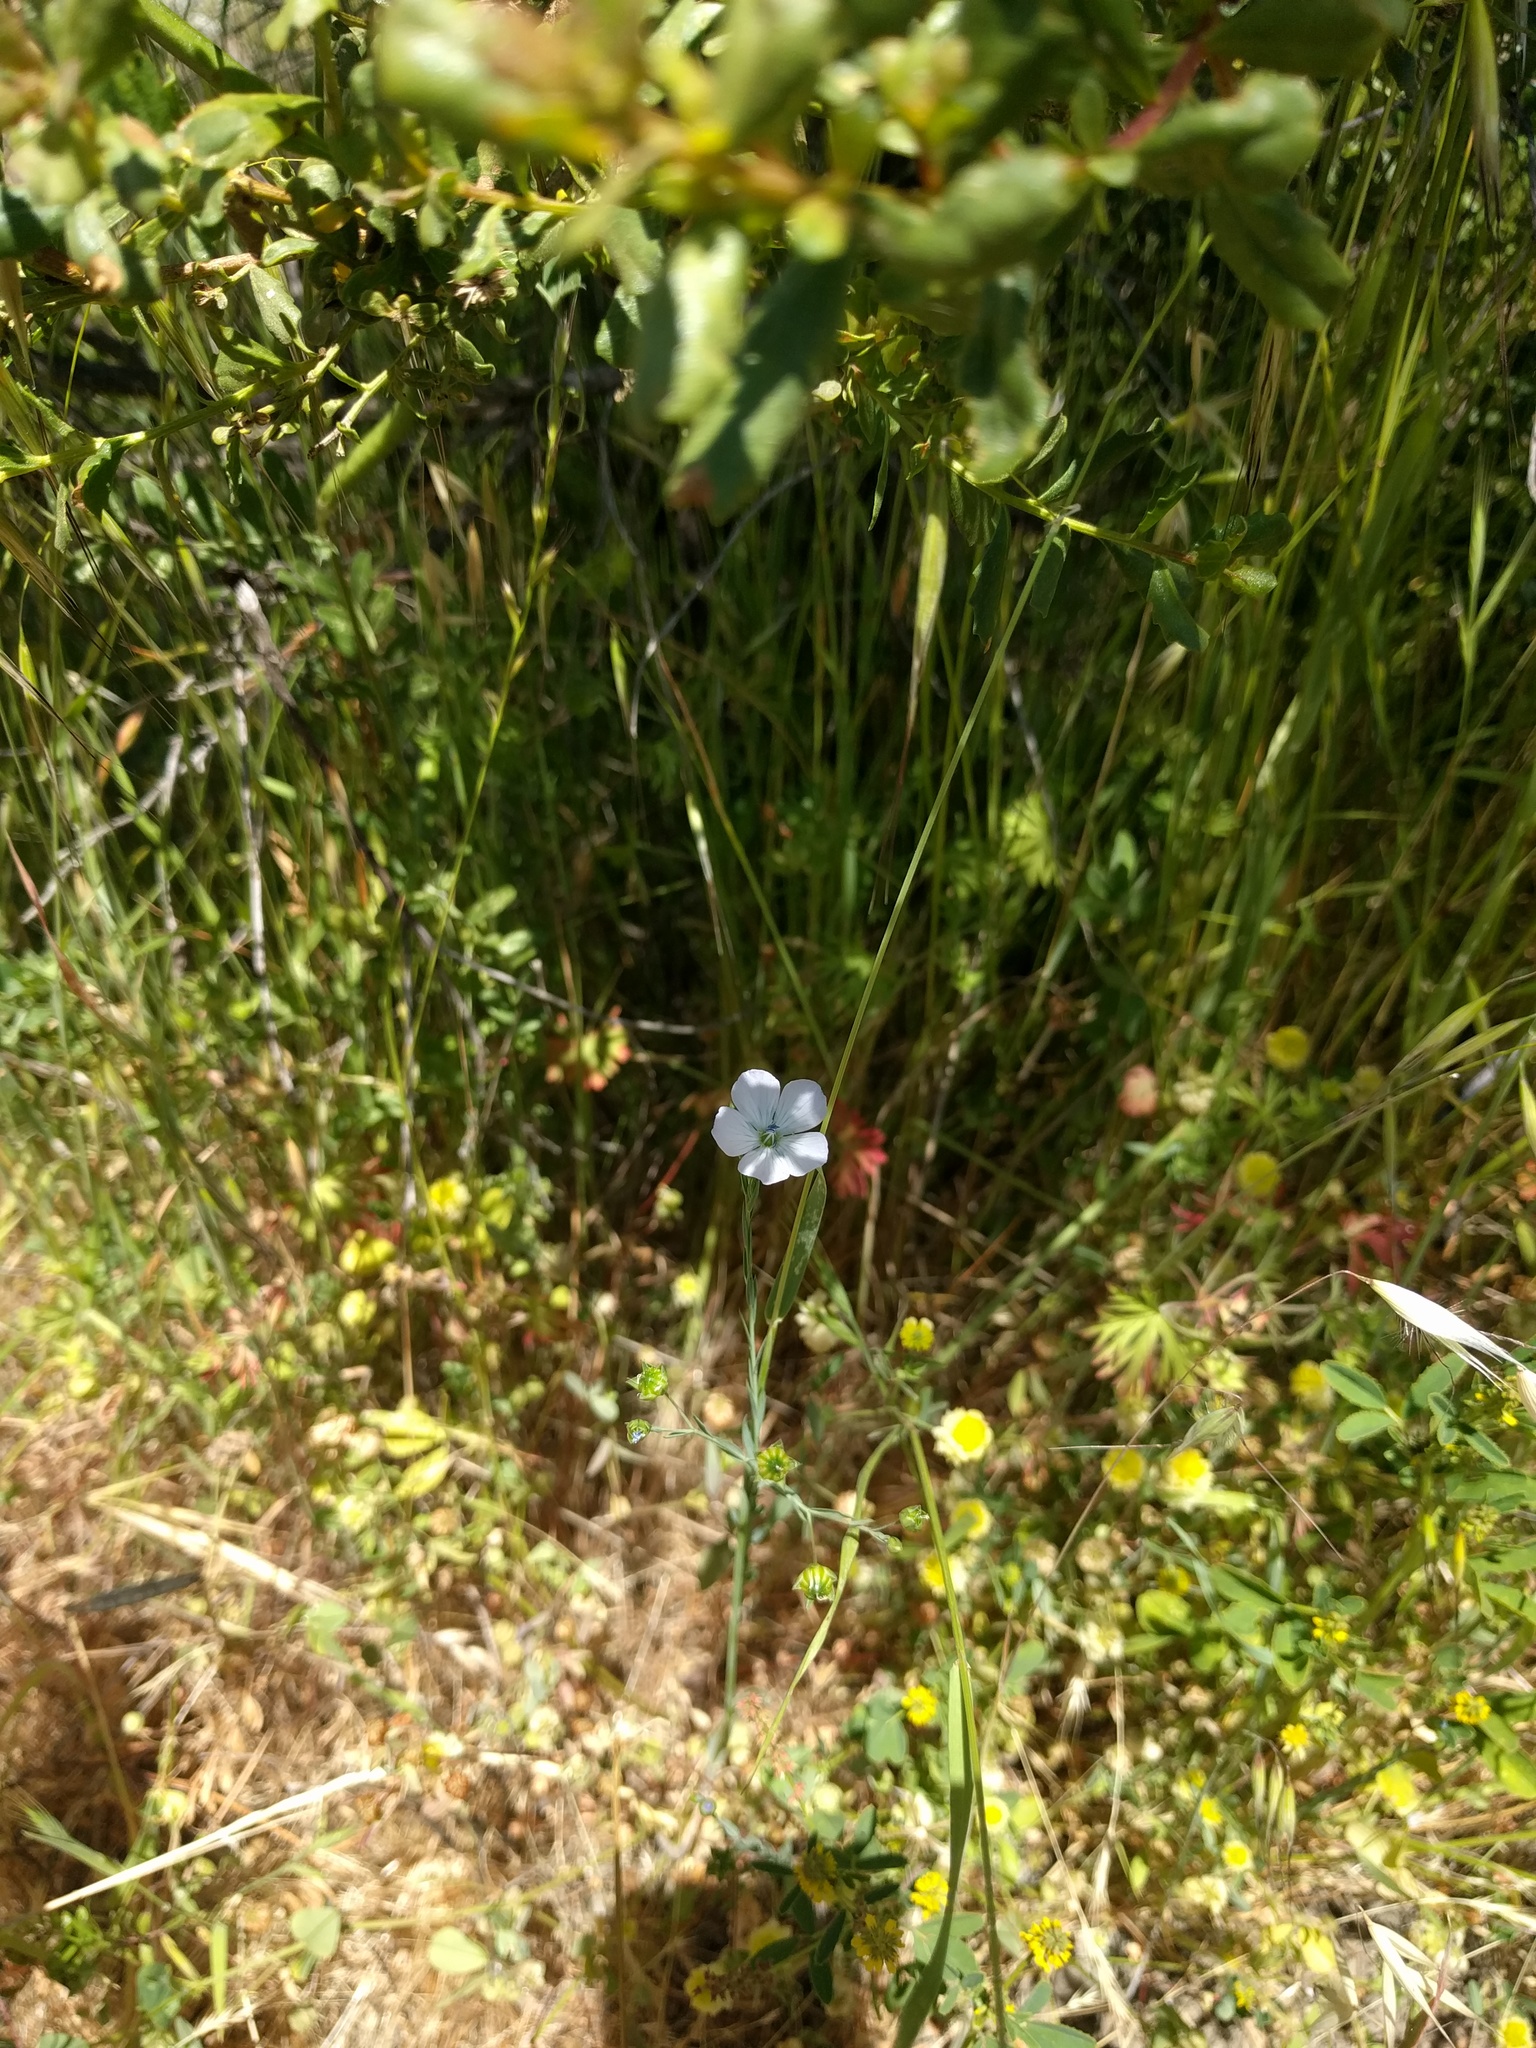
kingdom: Plantae
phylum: Tracheophyta
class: Magnoliopsida
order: Malpighiales
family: Linaceae
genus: Linum
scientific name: Linum bienne
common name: Pale flax
